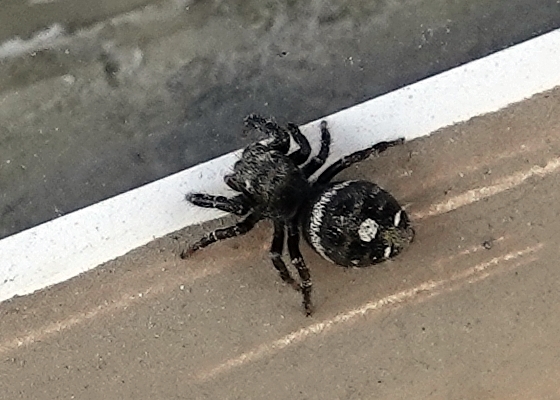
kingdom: Animalia
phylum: Arthropoda
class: Arachnida
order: Araneae
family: Salticidae
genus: Phidippus
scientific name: Phidippus audax
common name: Bold jumper
